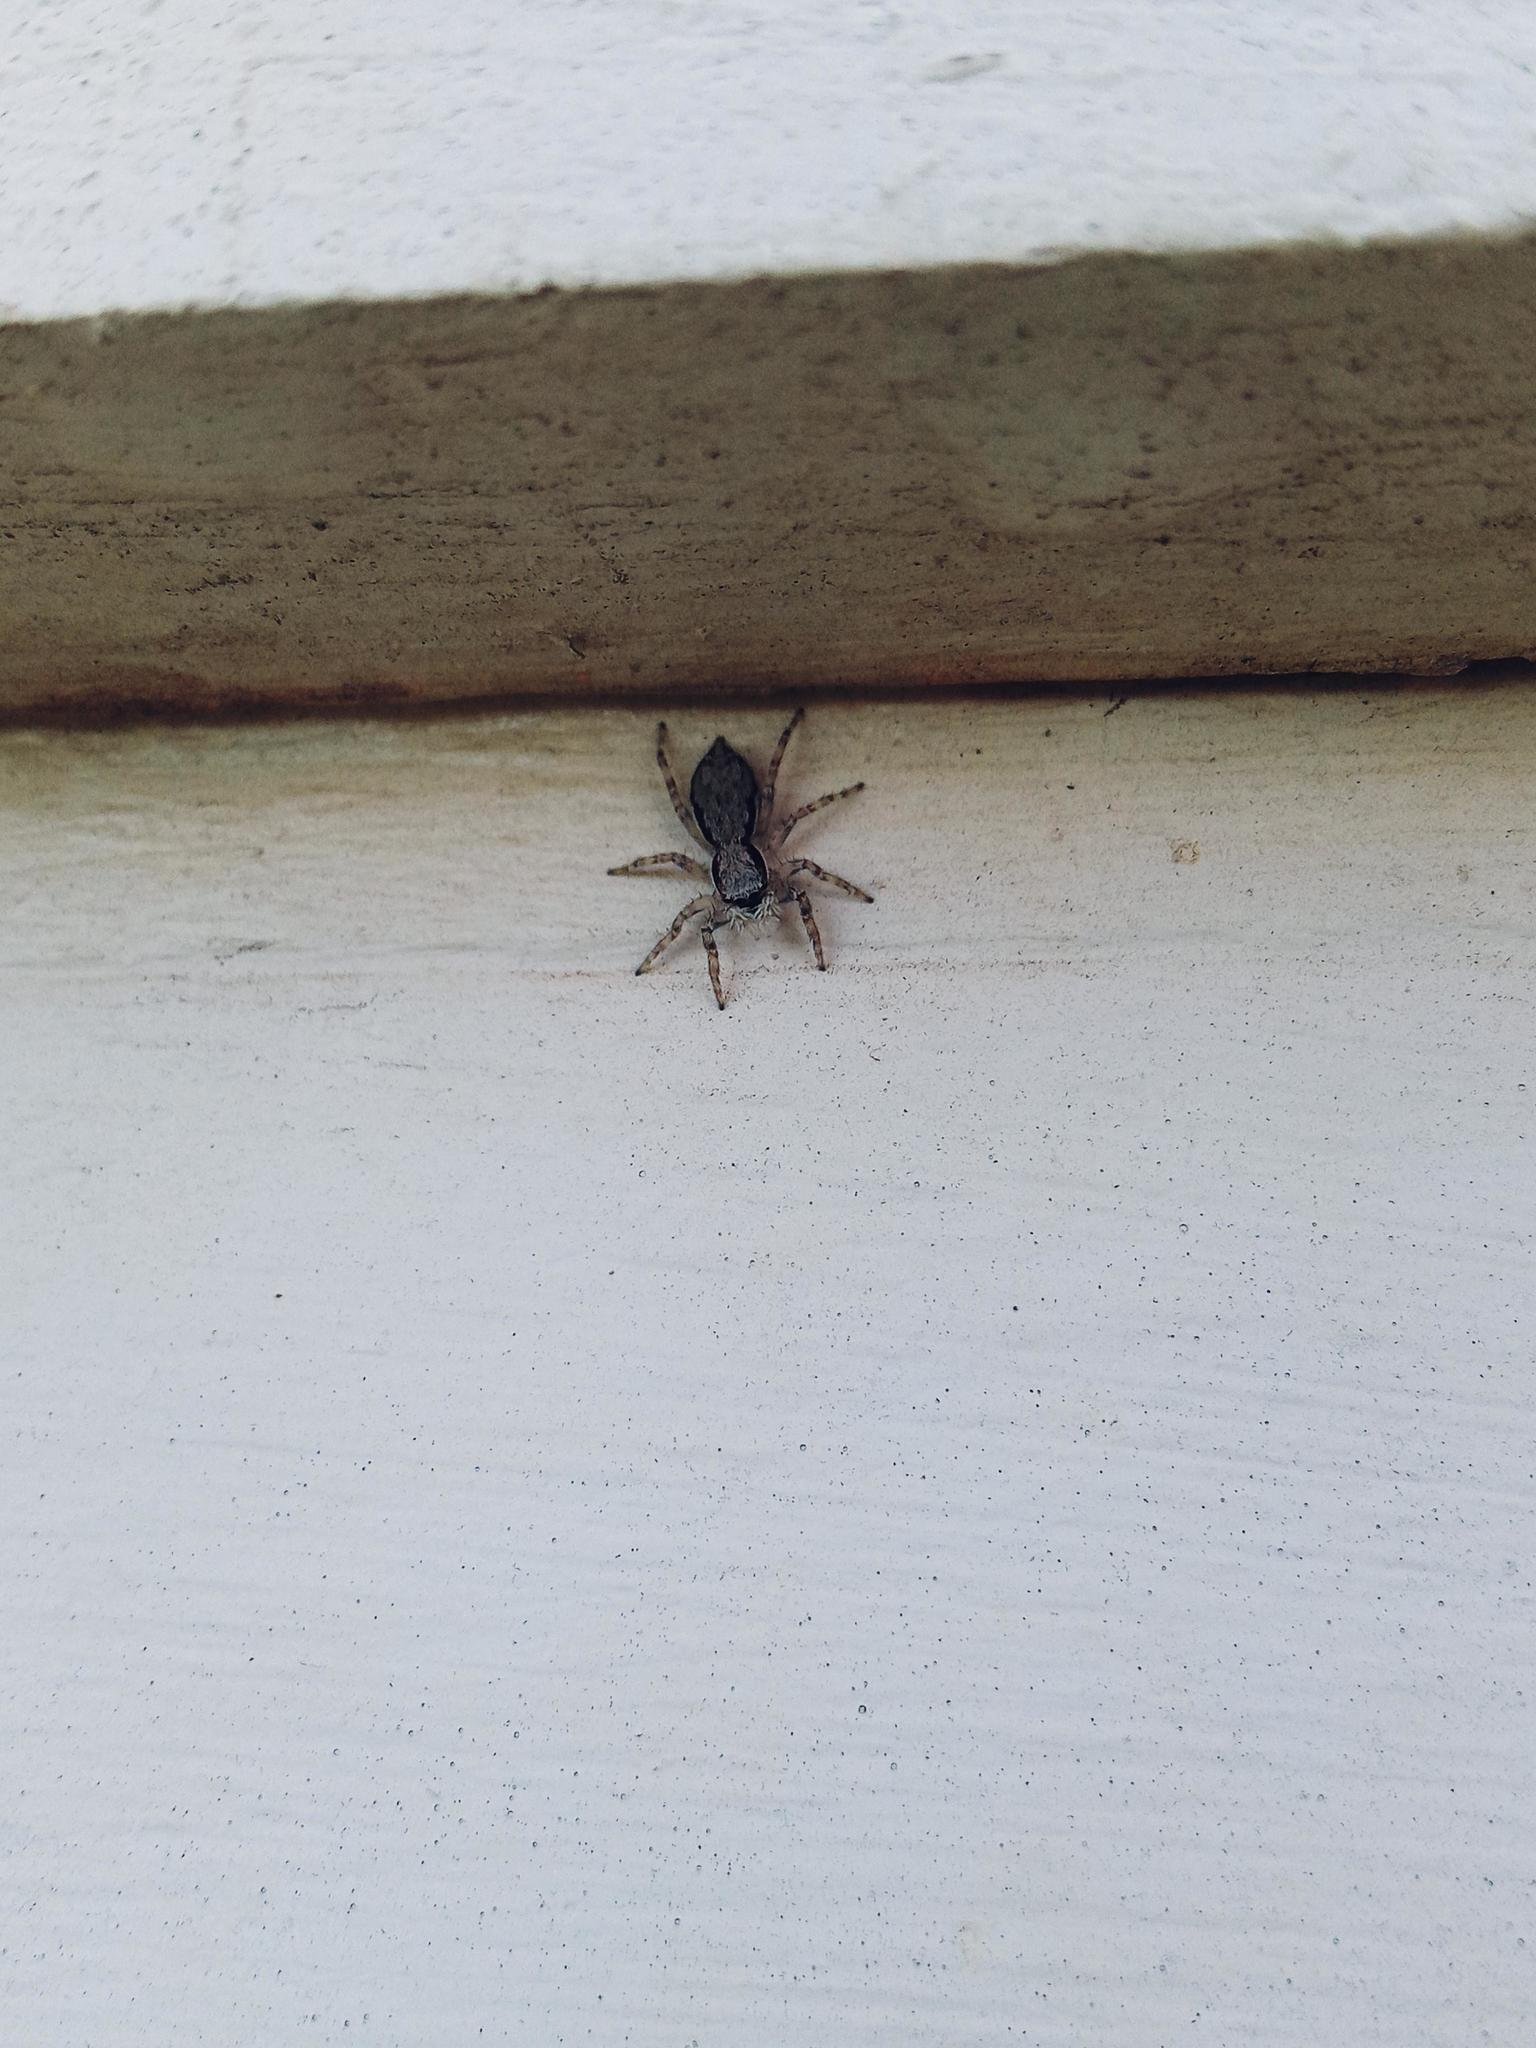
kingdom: Animalia
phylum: Arthropoda
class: Arachnida
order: Araneae
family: Salticidae
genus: Menemerus
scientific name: Menemerus bivittatus
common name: Gray wall jumper
